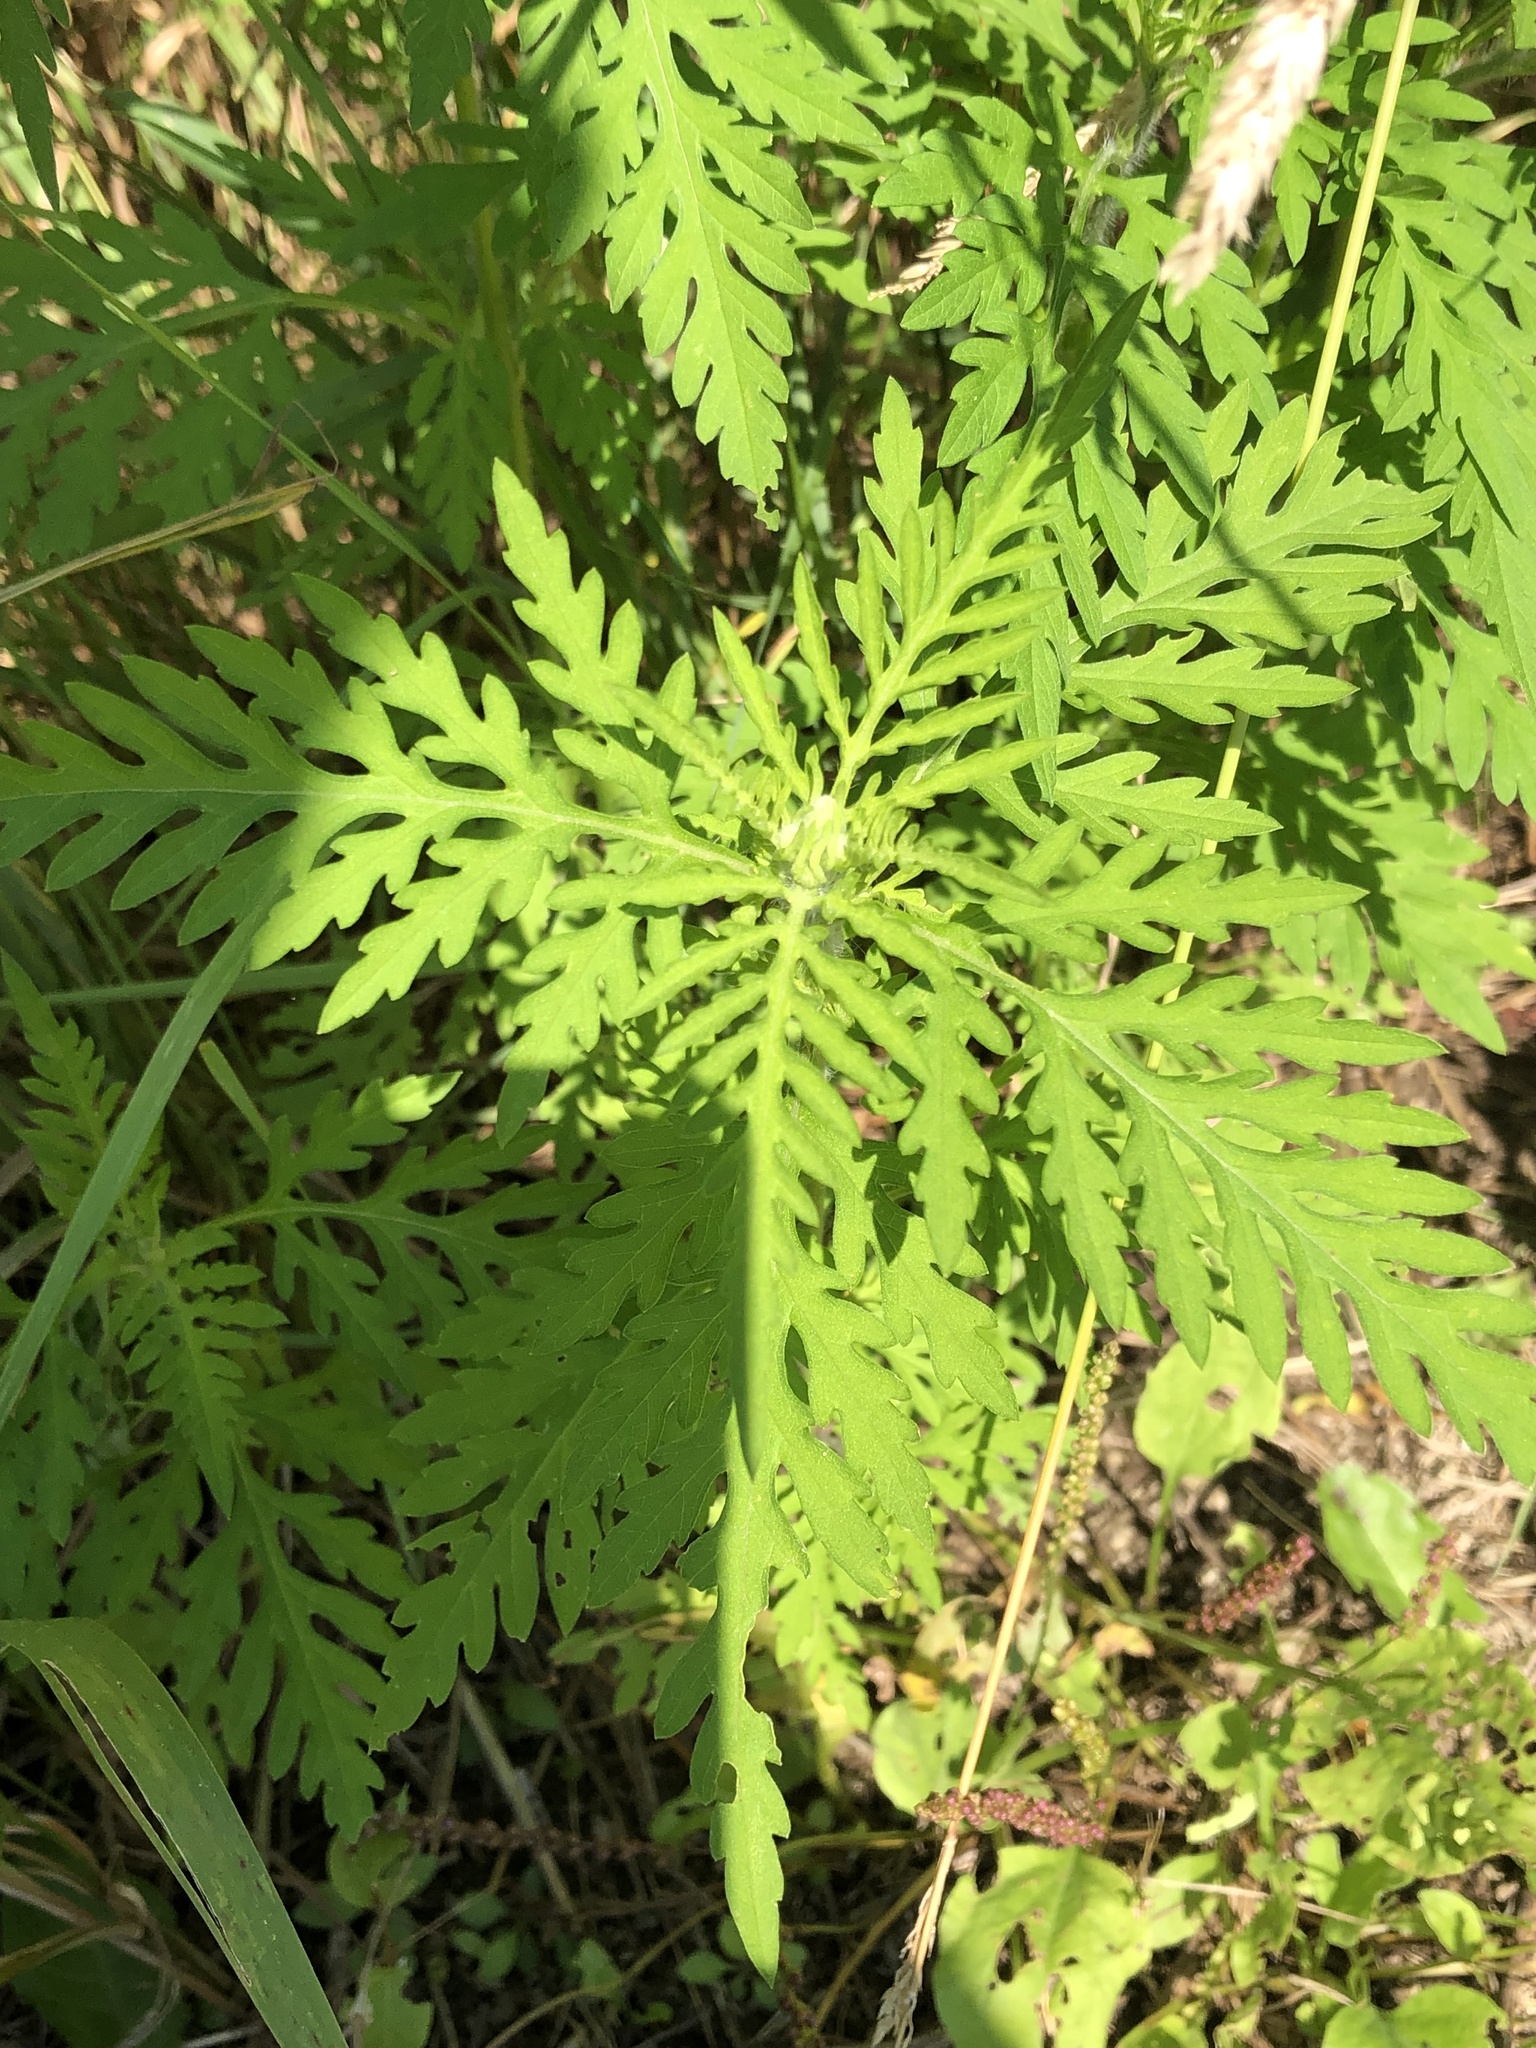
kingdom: Plantae
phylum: Tracheophyta
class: Magnoliopsida
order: Asterales
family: Asteraceae
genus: Ambrosia
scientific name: Ambrosia artemisiifolia
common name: Annual ragweed
